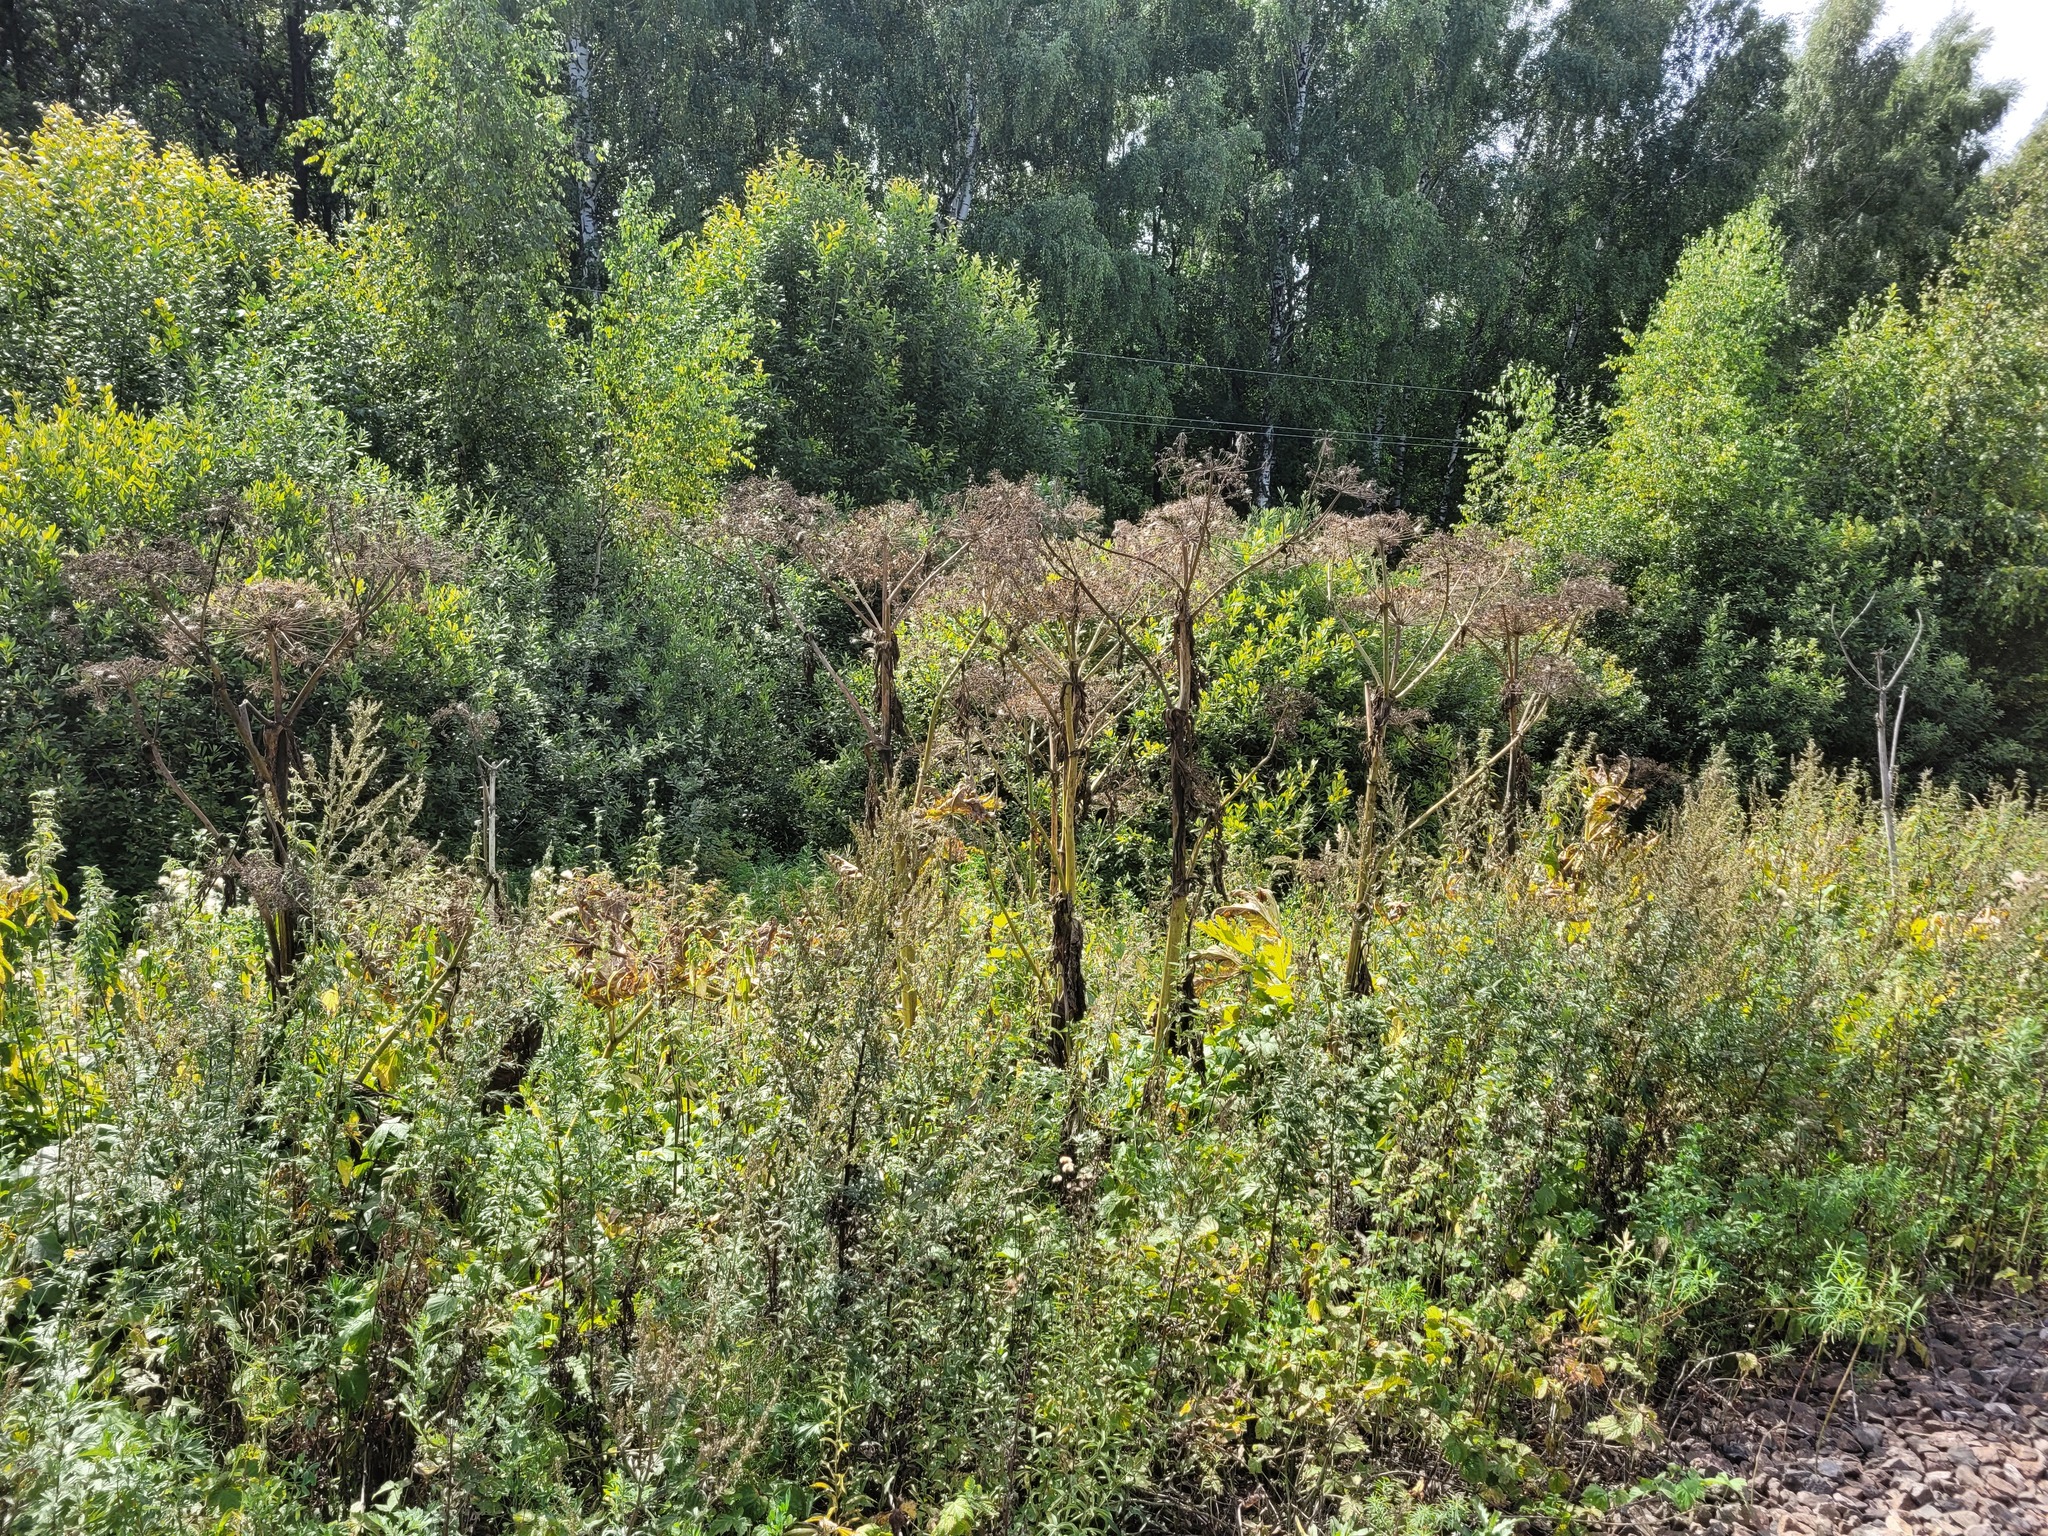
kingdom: Plantae
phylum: Tracheophyta
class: Magnoliopsida
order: Apiales
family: Apiaceae
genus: Heracleum
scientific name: Heracleum sosnowskyi
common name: Sosnowsky's hogweed
